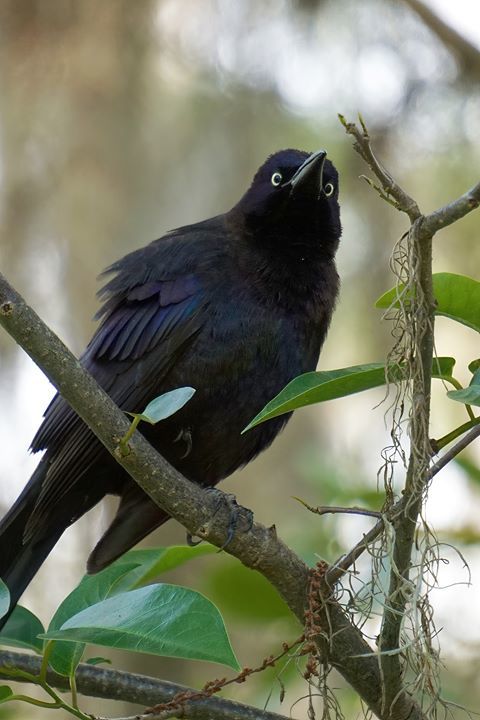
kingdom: Animalia
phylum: Chordata
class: Aves
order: Passeriformes
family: Icteridae
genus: Quiscalus
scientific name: Quiscalus quiscula
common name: Common grackle
